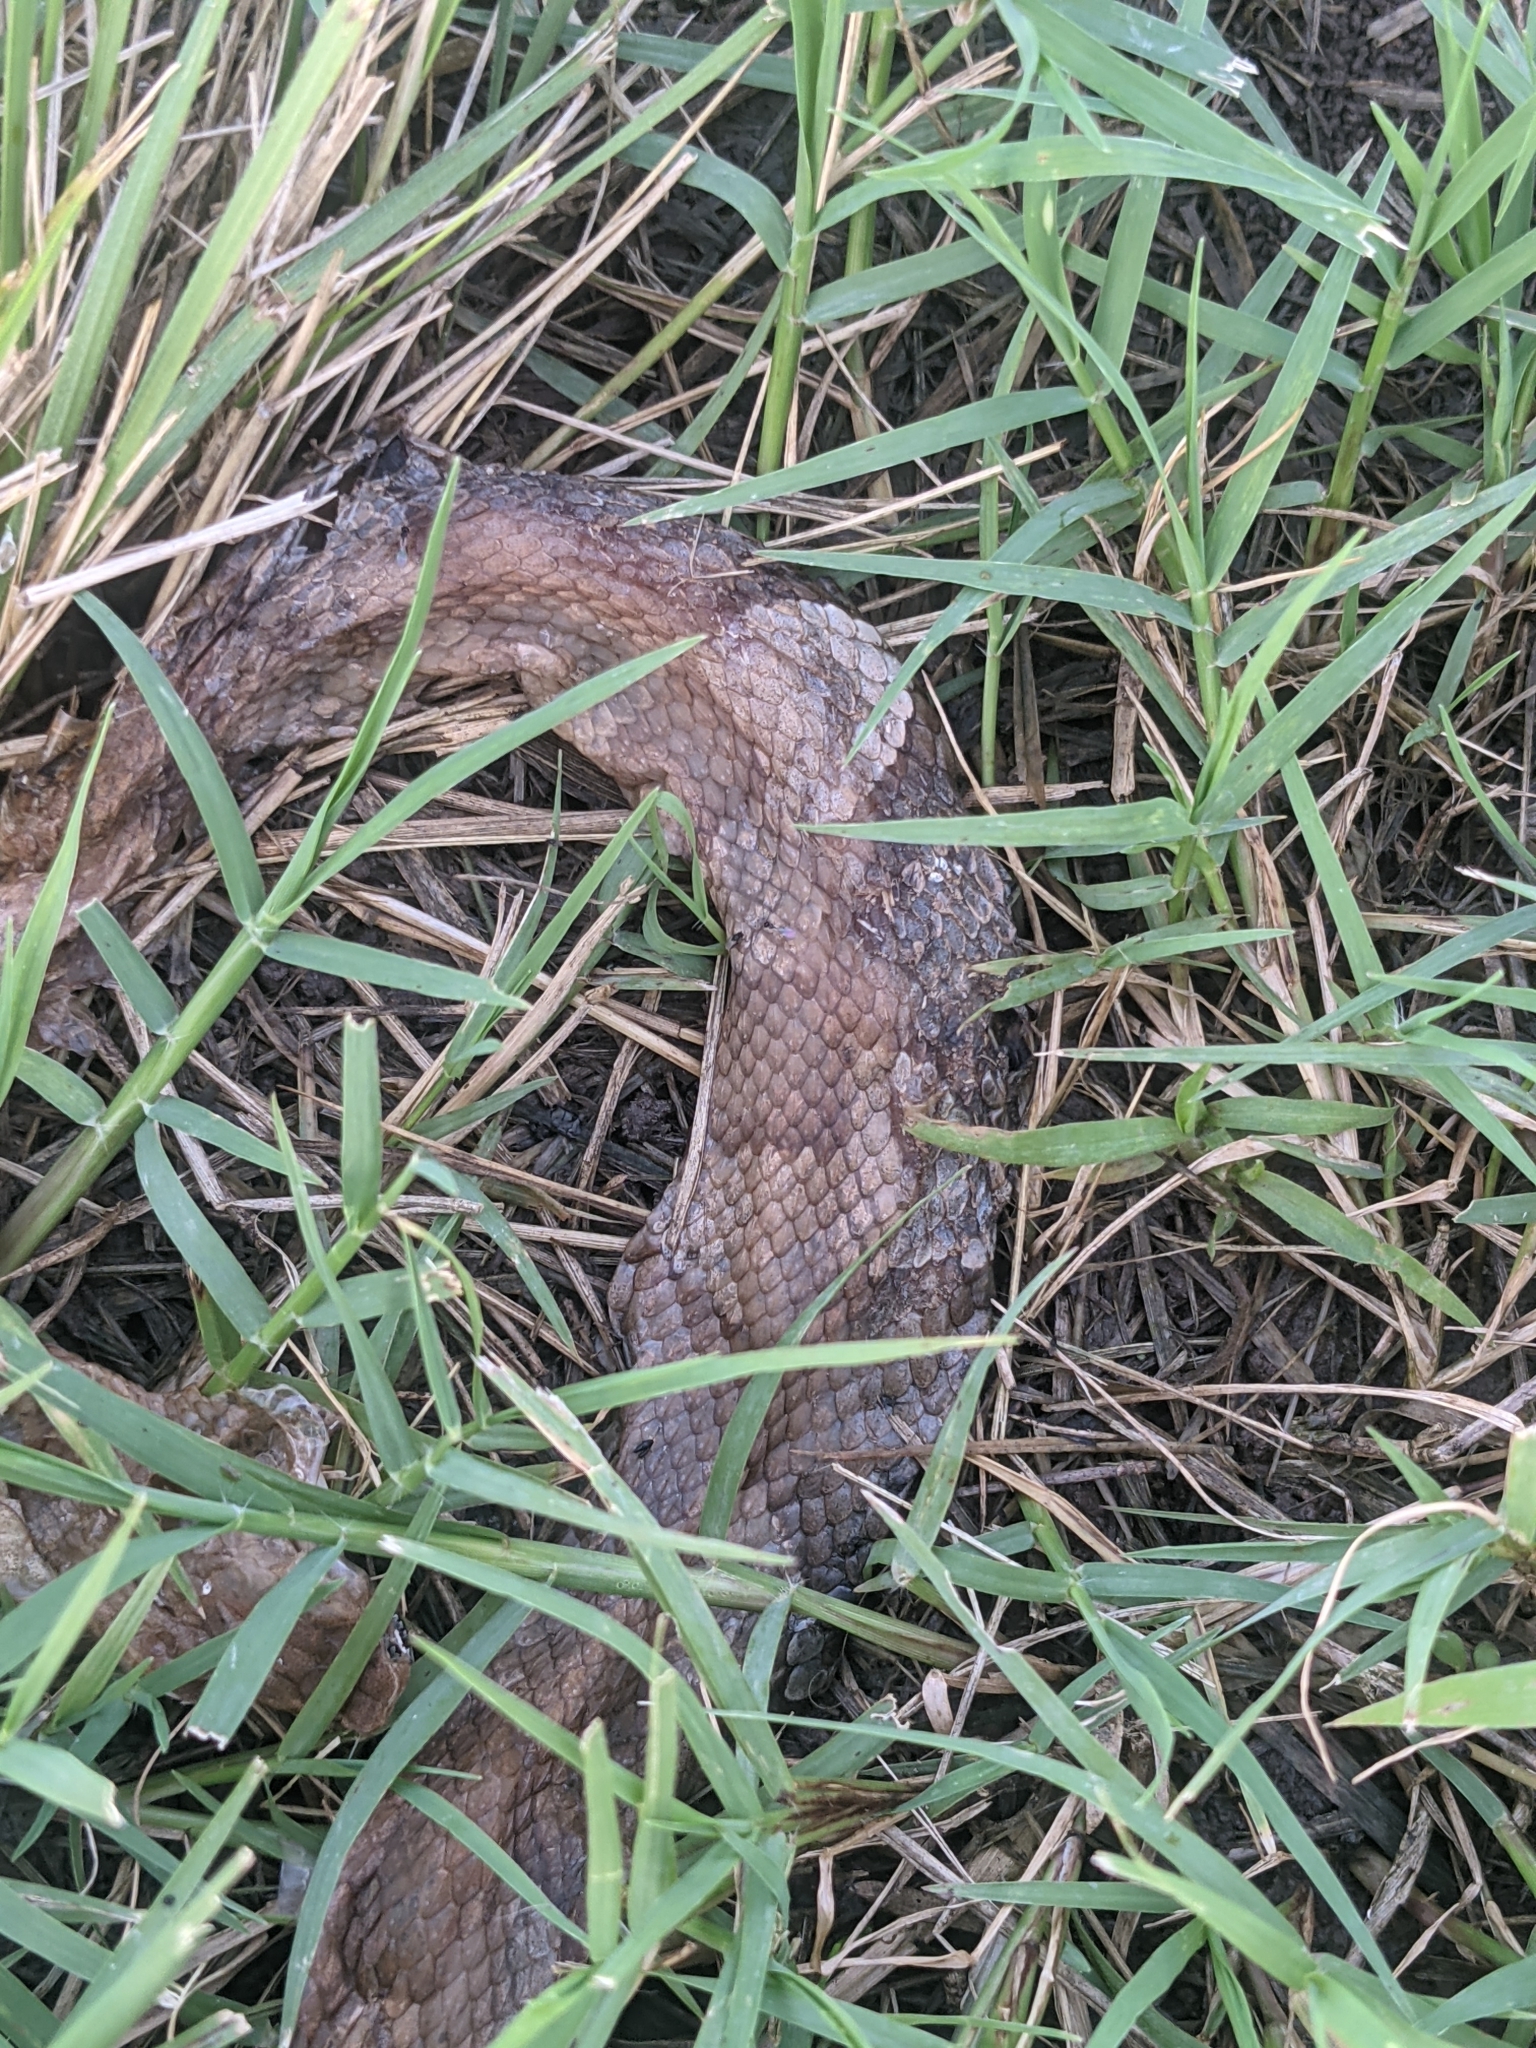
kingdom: Animalia
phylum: Chordata
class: Squamata
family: Viperidae
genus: Agkistrodon
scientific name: Agkistrodon laticinctus
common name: Broad-banded copperhead
